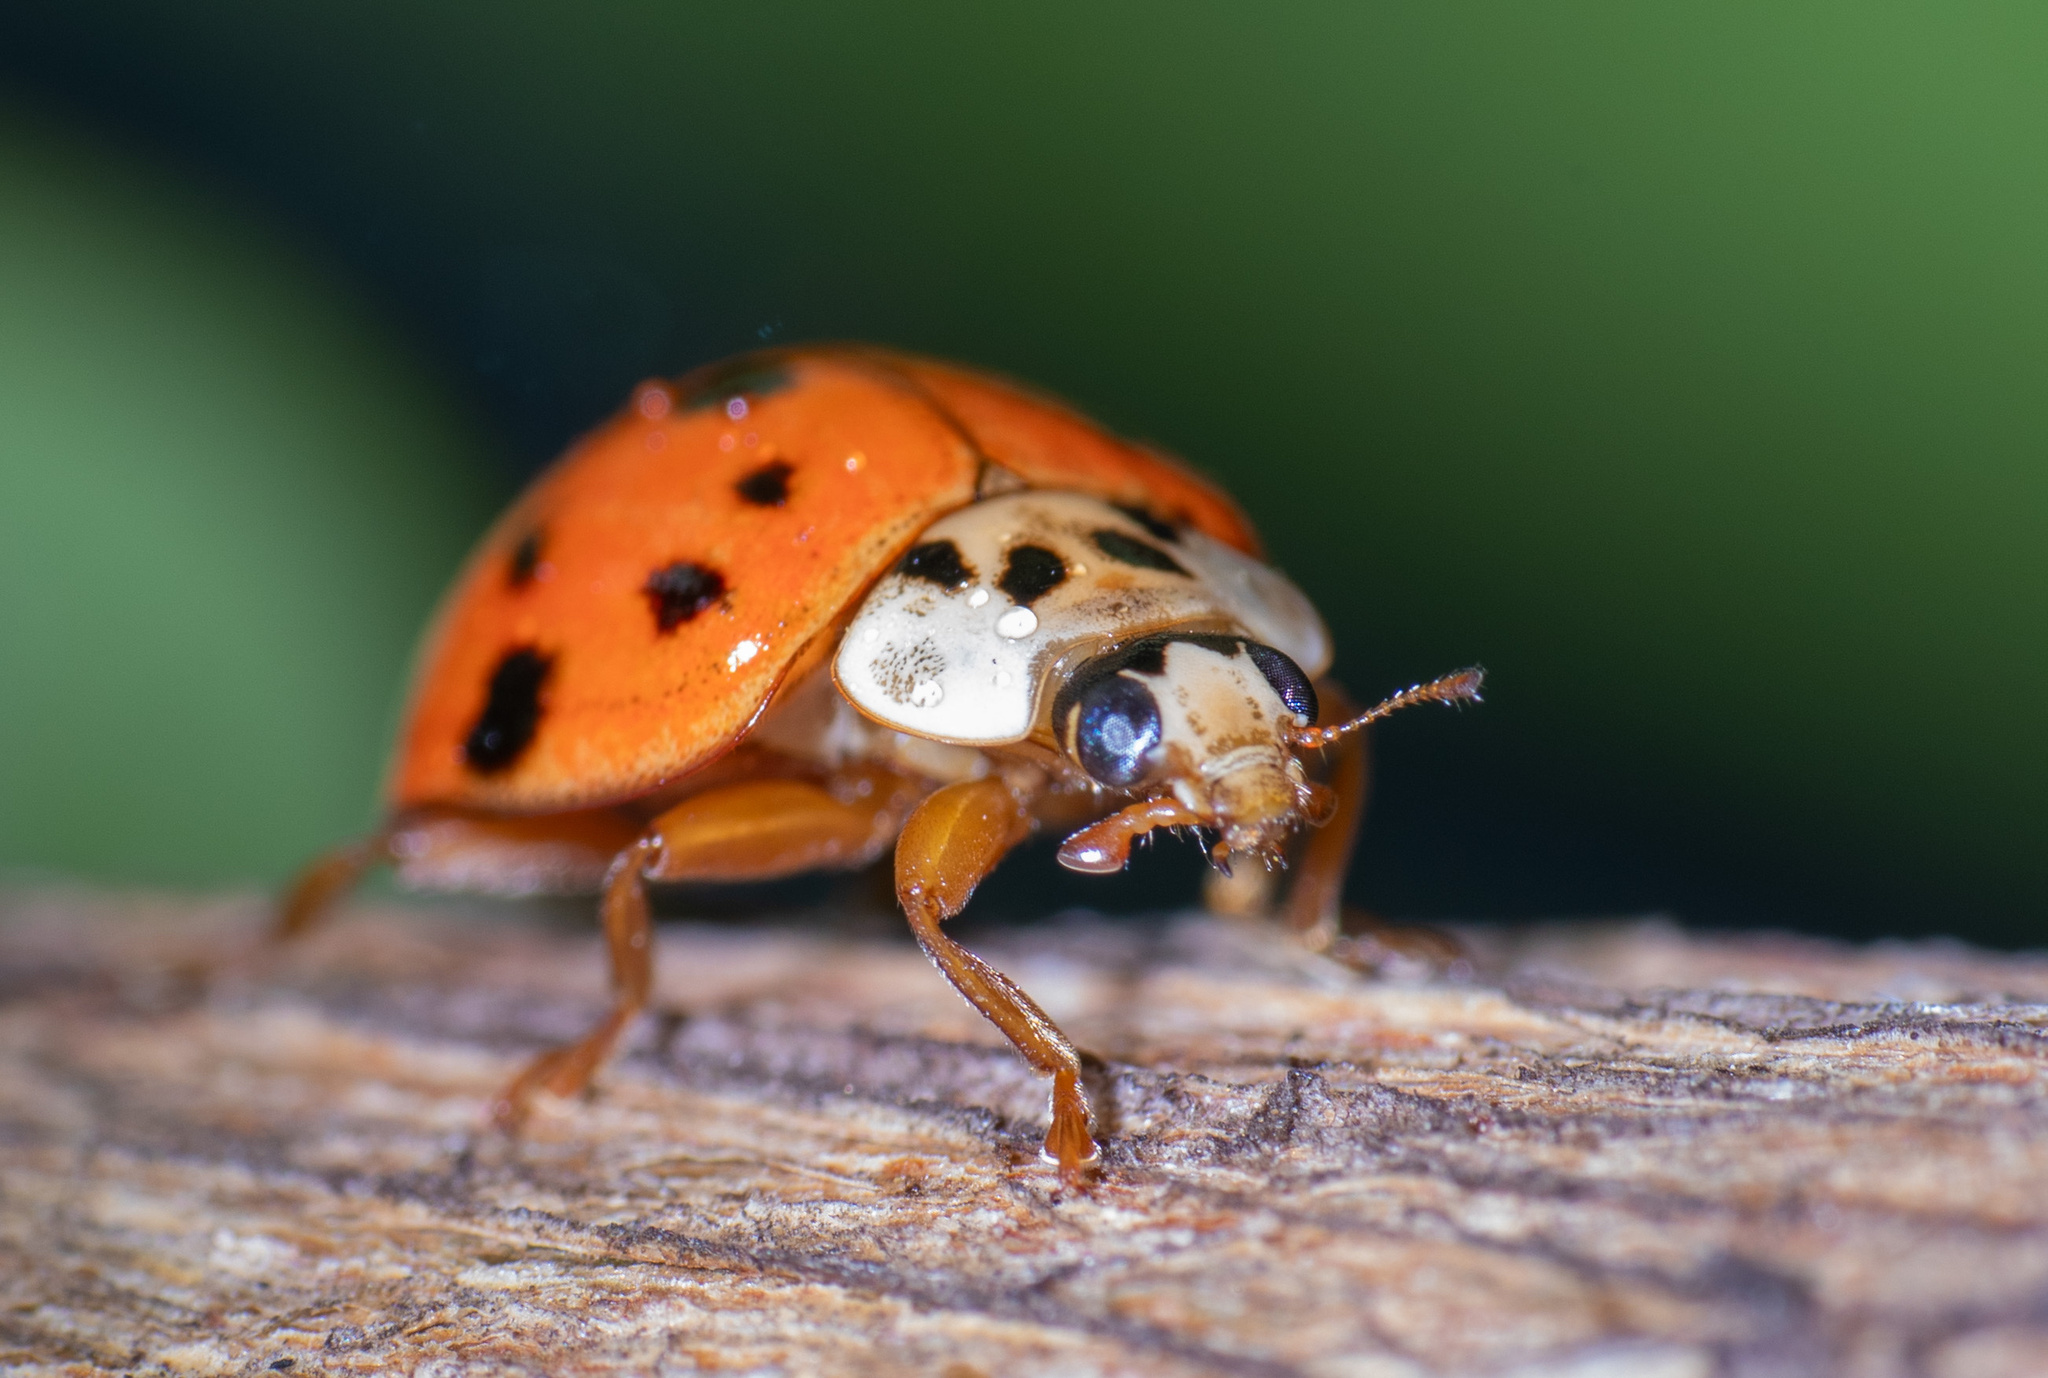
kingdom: Animalia
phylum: Arthropoda
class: Insecta
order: Coleoptera
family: Coccinellidae
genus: Harmonia
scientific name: Harmonia axyridis
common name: Harlequin ladybird
